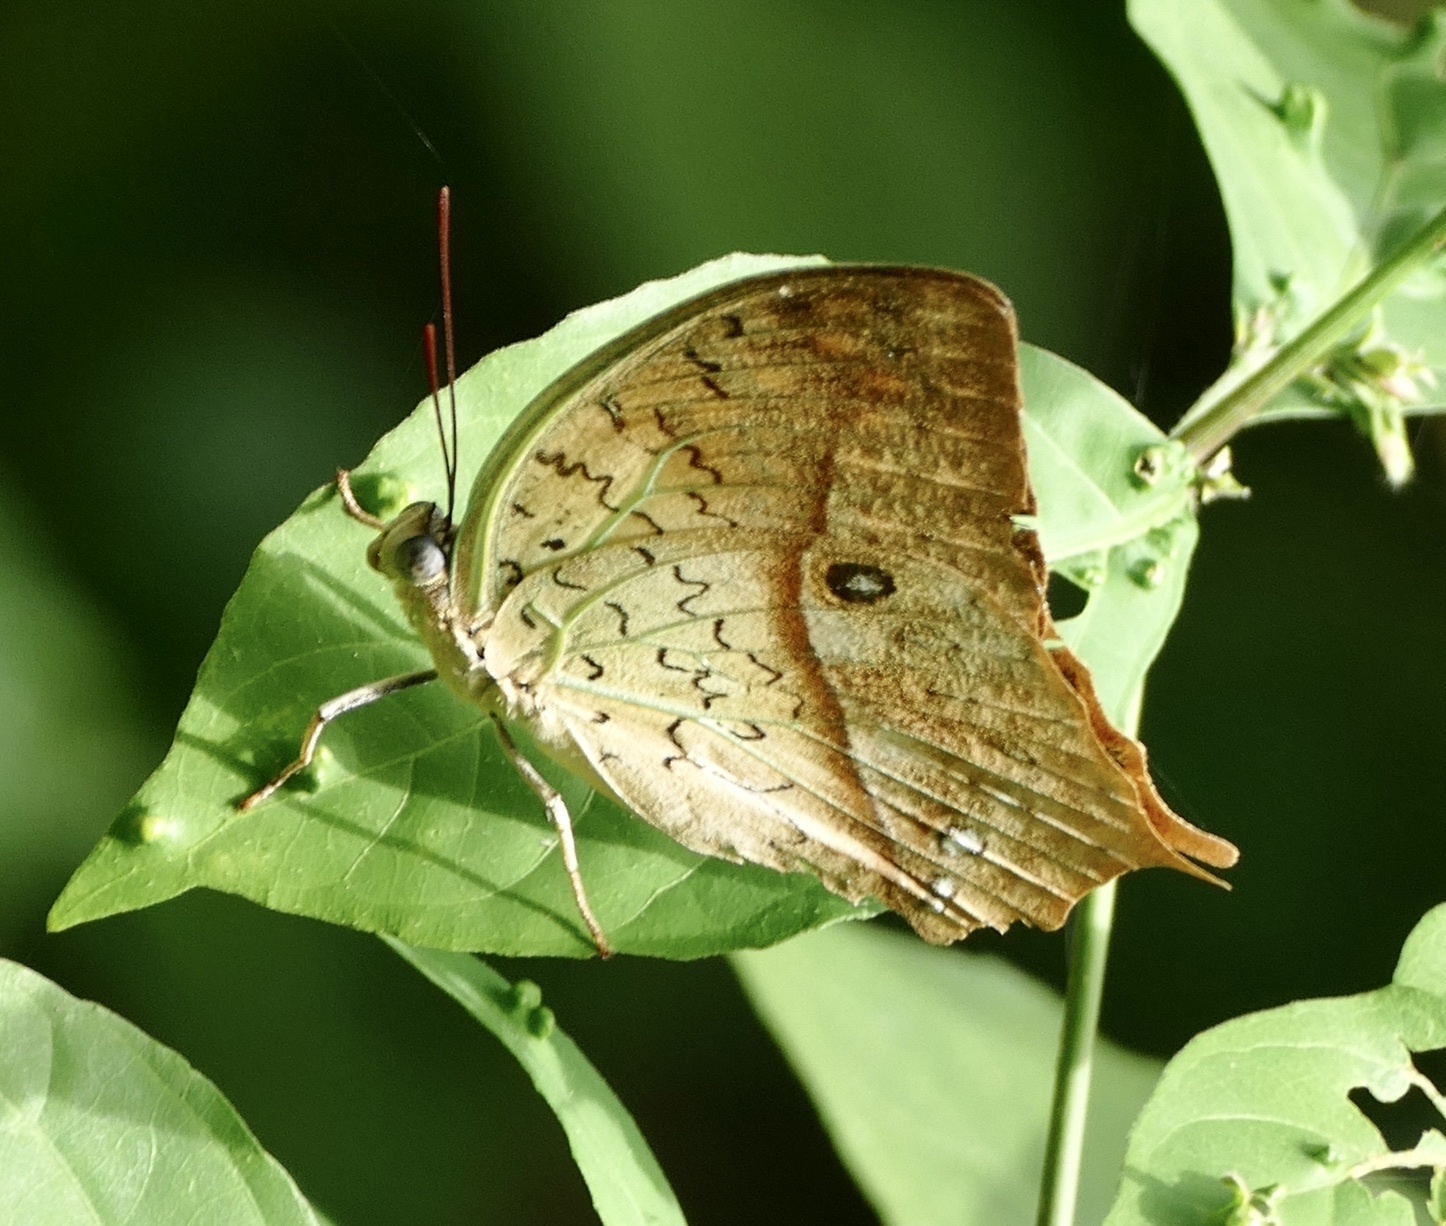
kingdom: Animalia
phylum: Arthropoda
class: Insecta
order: Lepidoptera
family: Nymphalidae
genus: Charaxes
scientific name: Charaxes fulvescens
